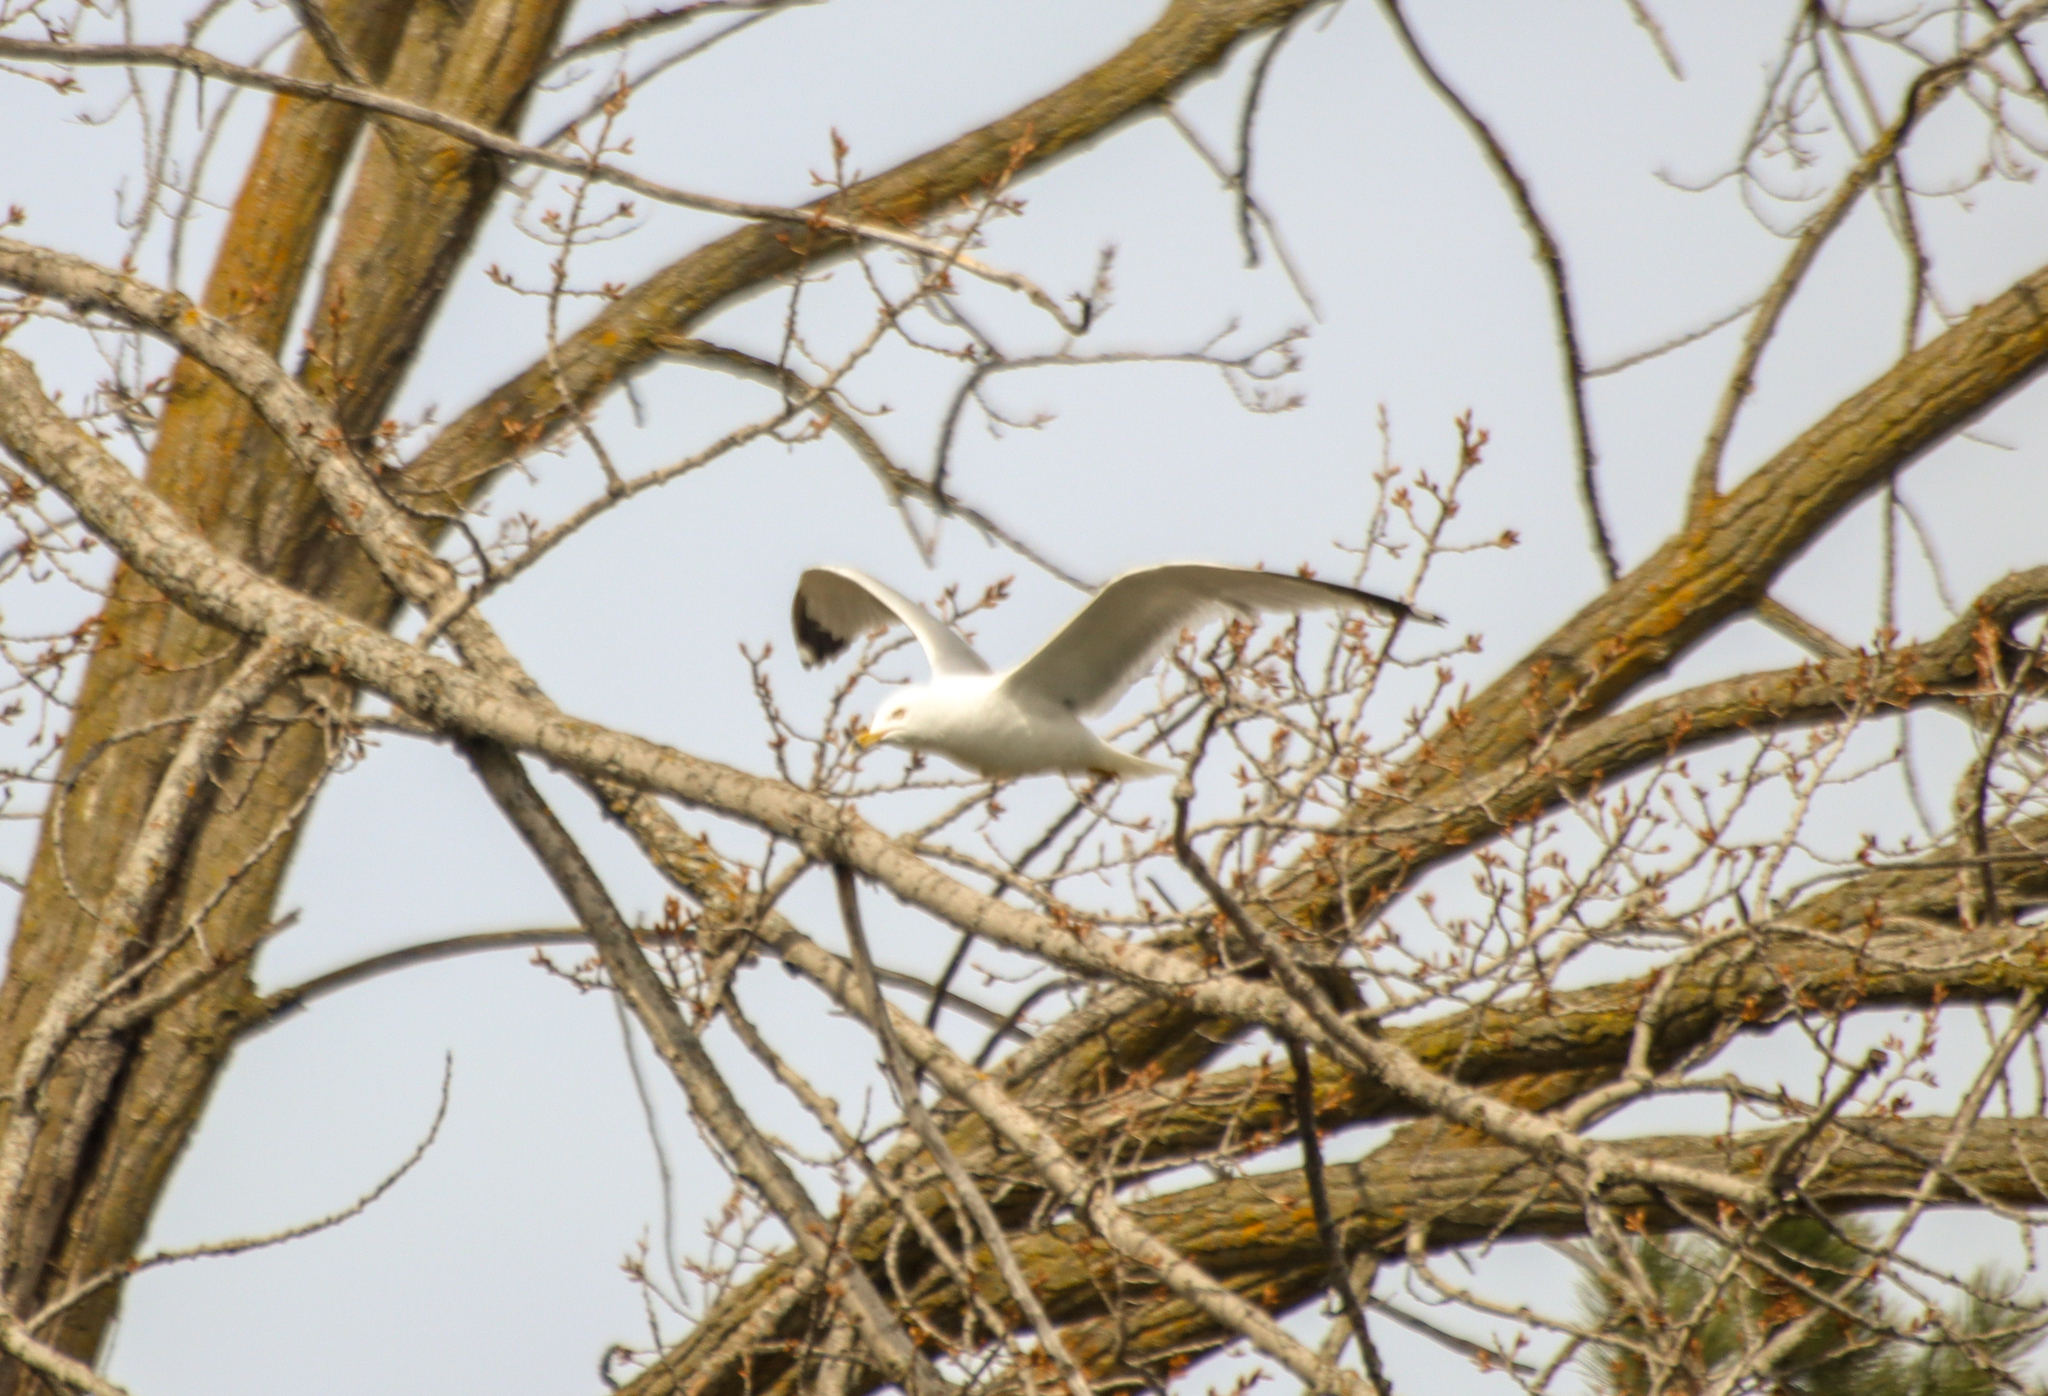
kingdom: Animalia
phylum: Chordata
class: Aves
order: Charadriiformes
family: Laridae
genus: Larus
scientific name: Larus delawarensis
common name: Ring-billed gull
